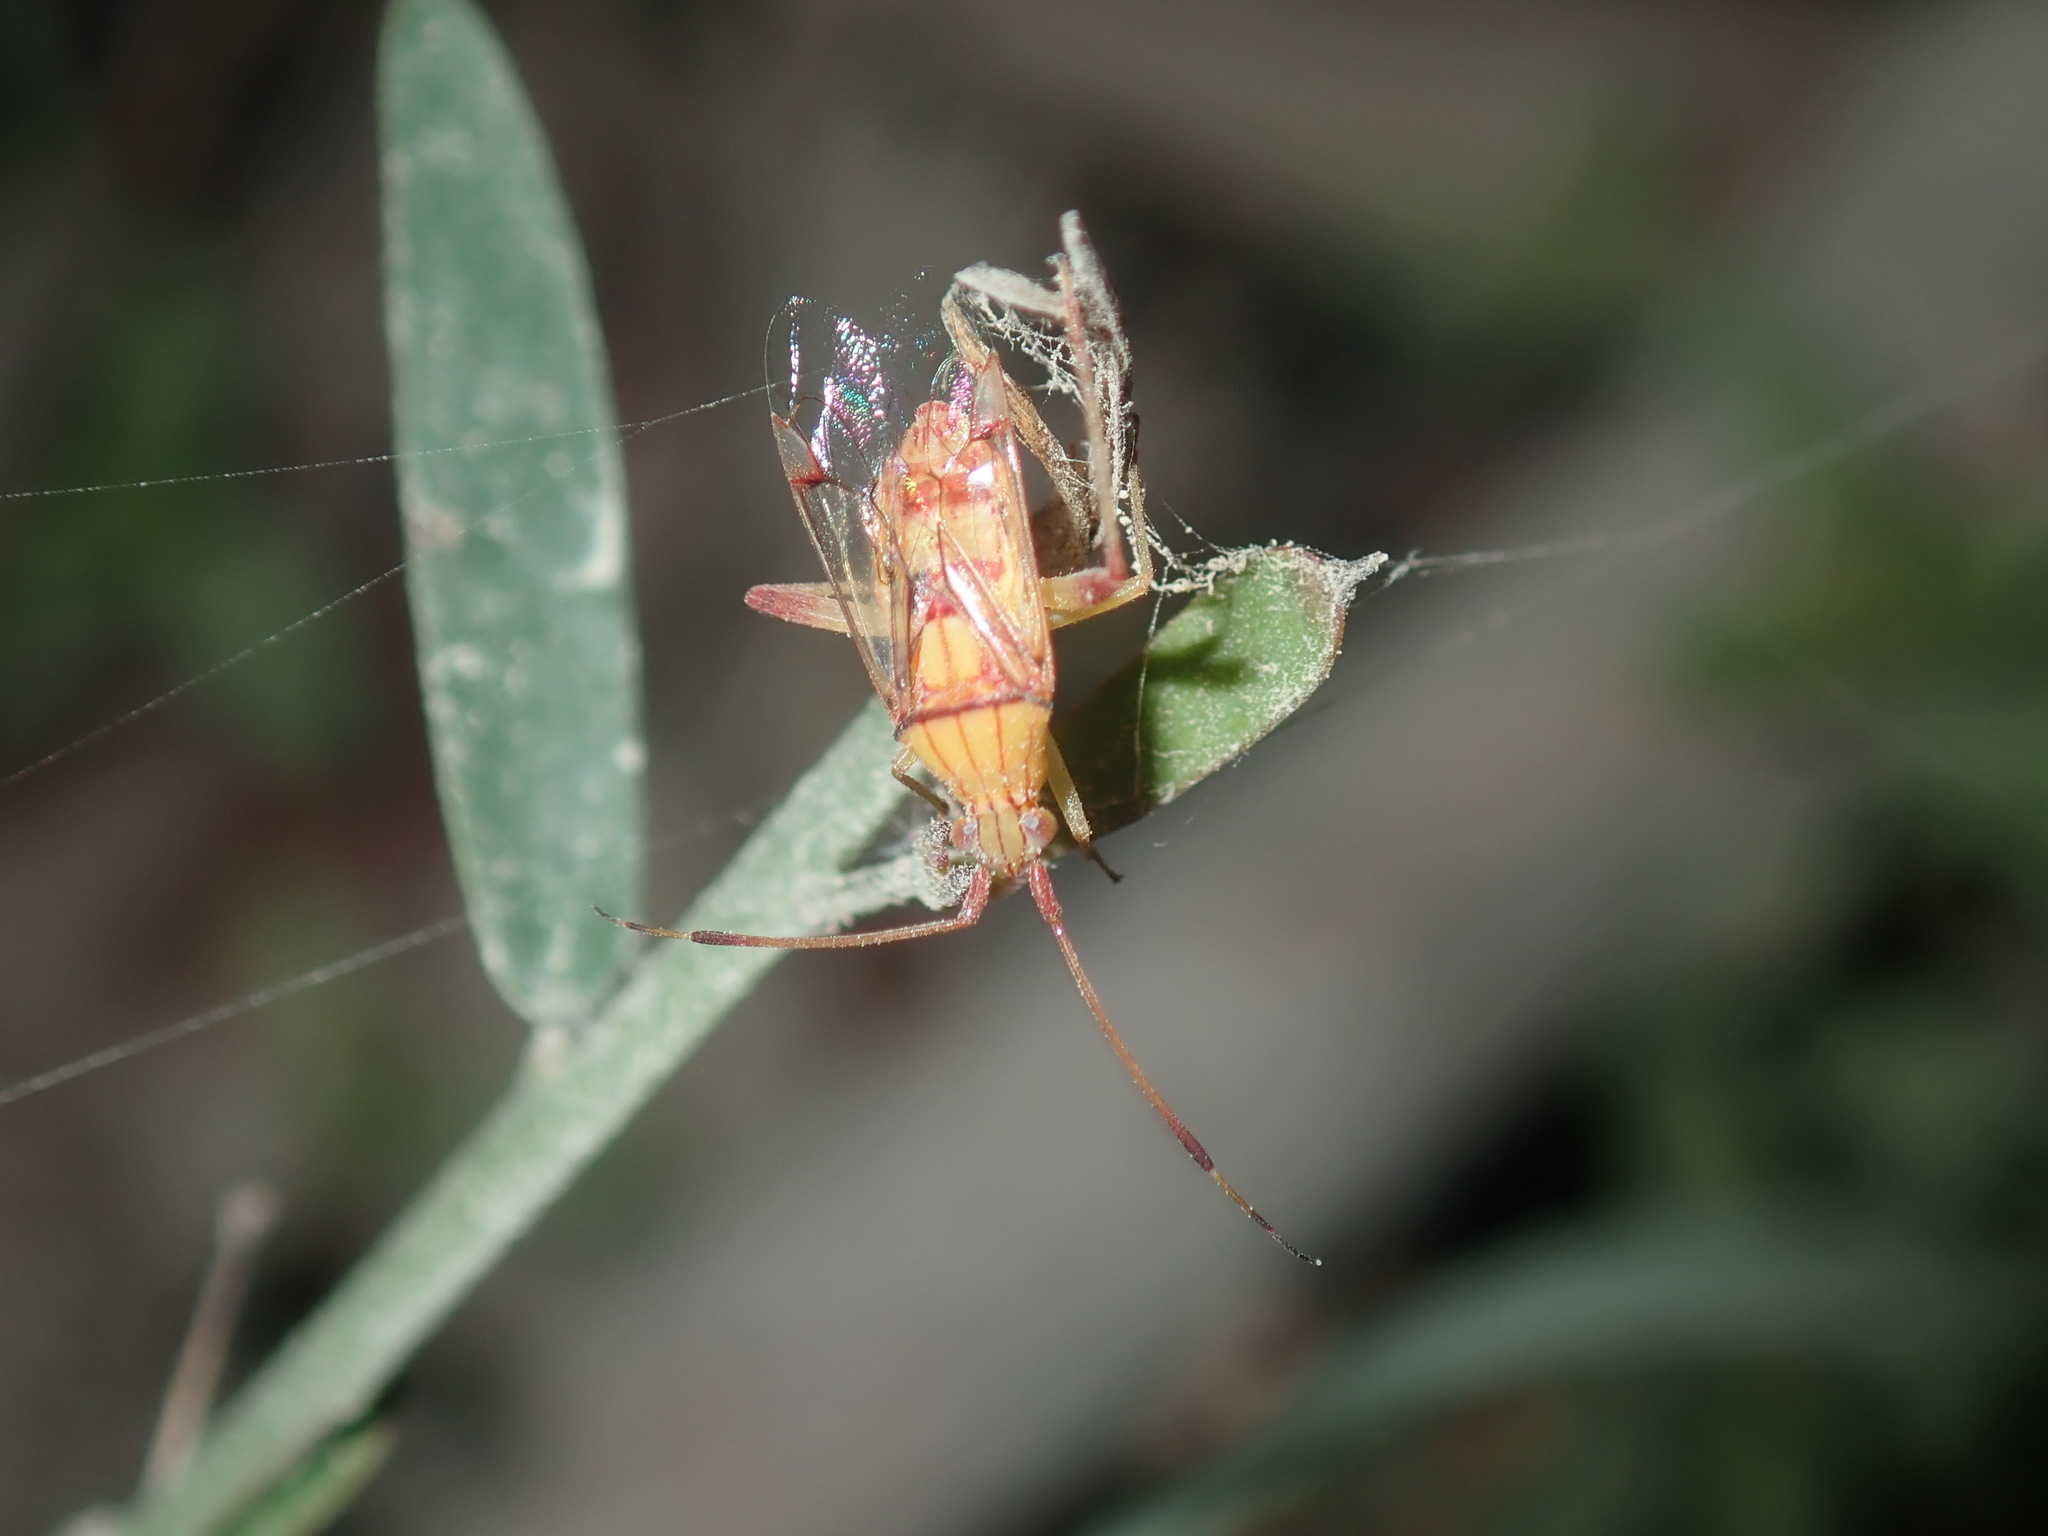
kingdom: Animalia
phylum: Arthropoda
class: Insecta
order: Hemiptera
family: Miridae
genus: Hyalopeplus
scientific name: Hyalopeplus loriae
